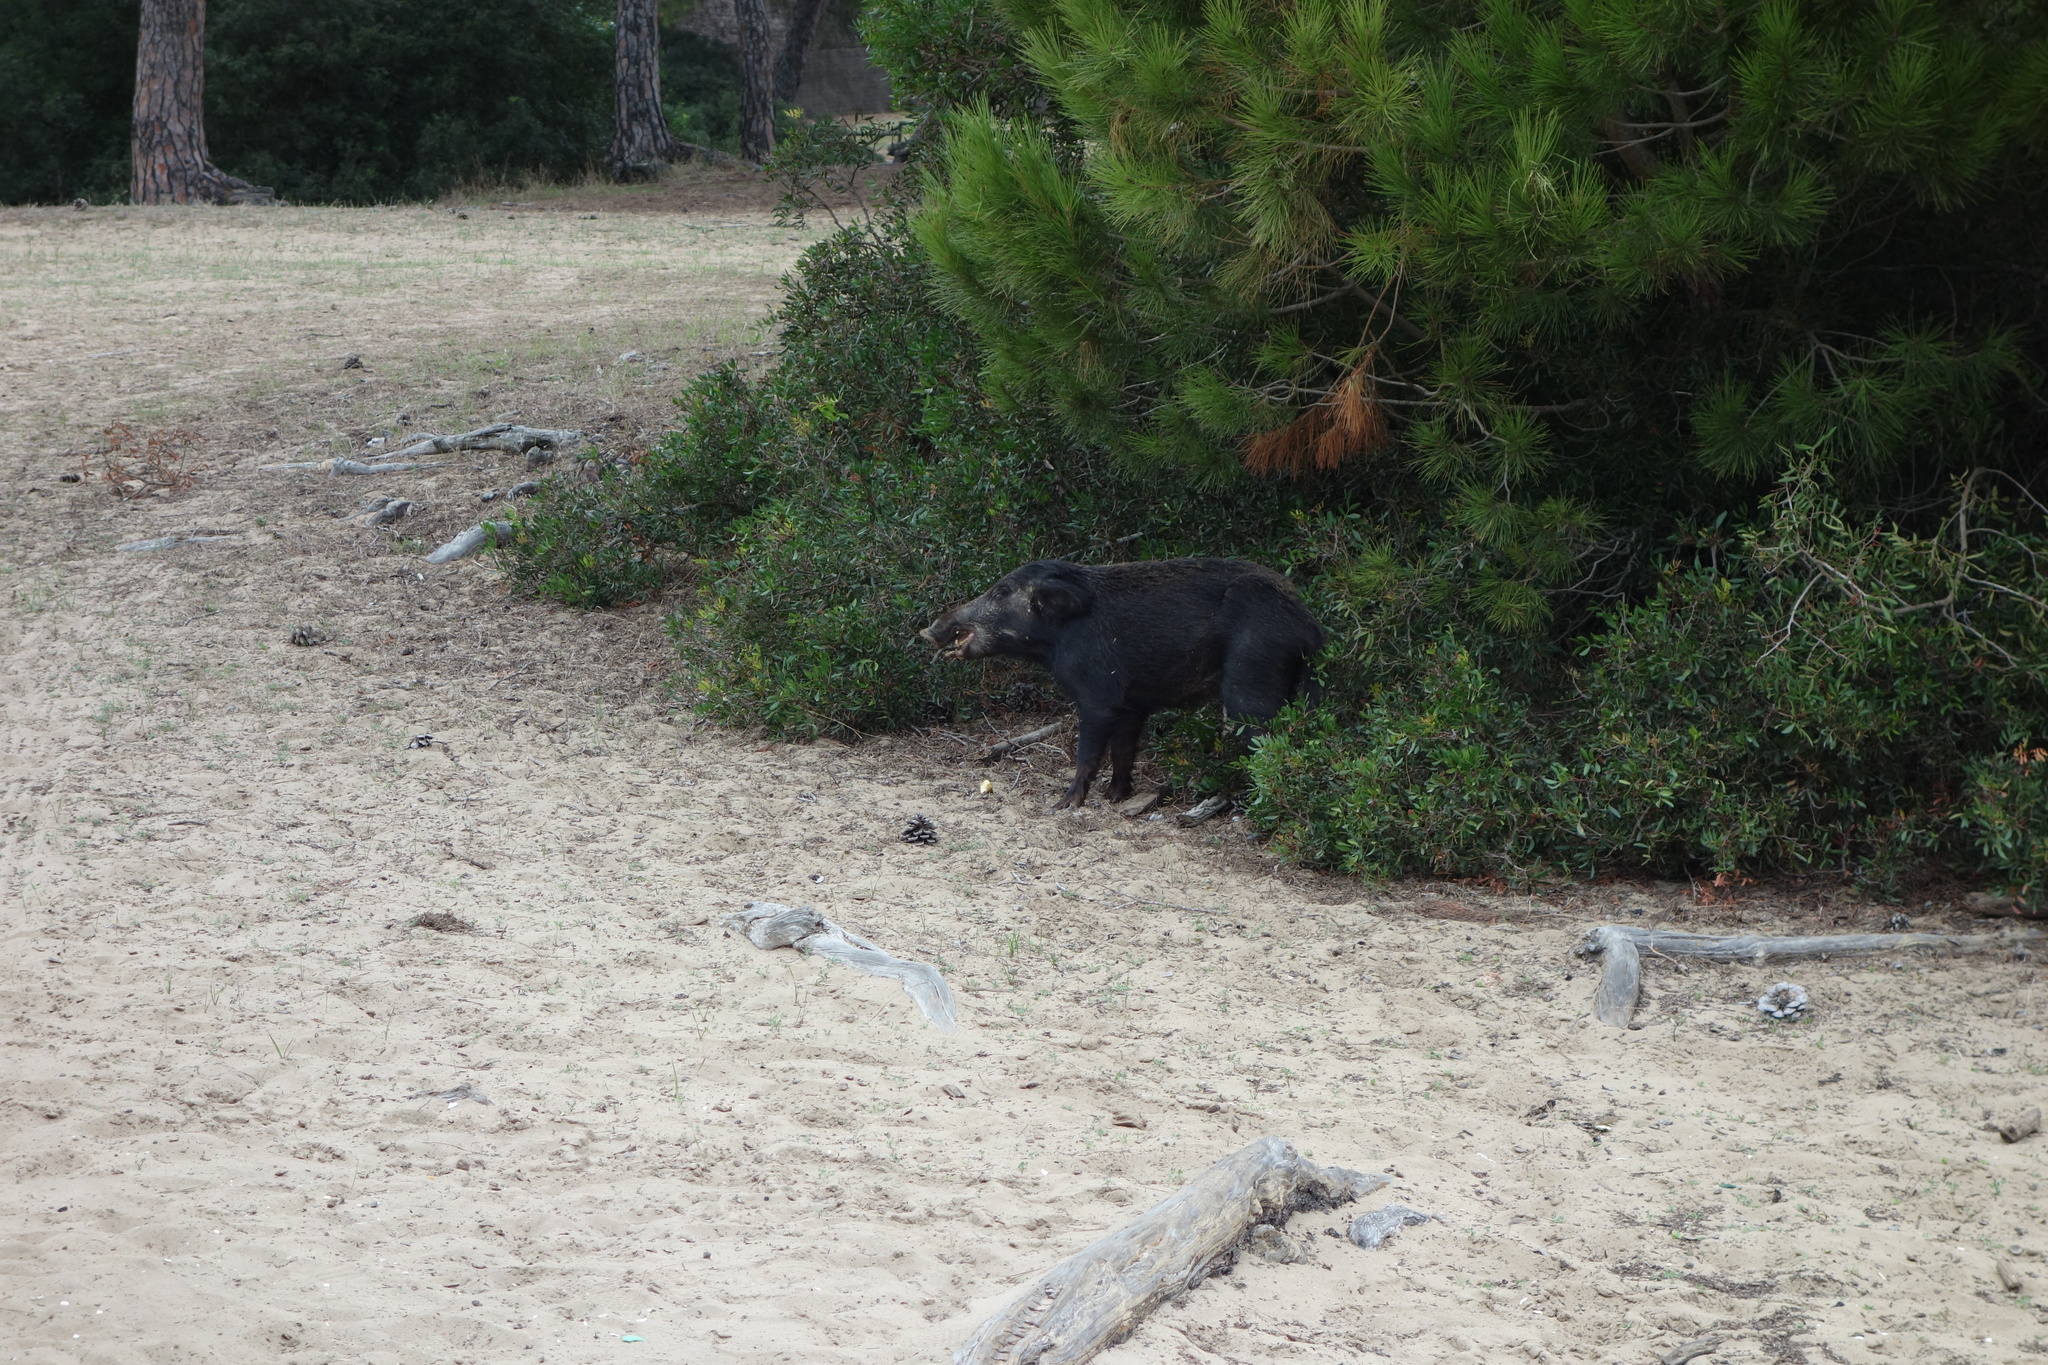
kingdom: Animalia
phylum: Chordata
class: Mammalia
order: Artiodactyla
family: Suidae
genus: Sus
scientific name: Sus scrofa
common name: Wild boar
